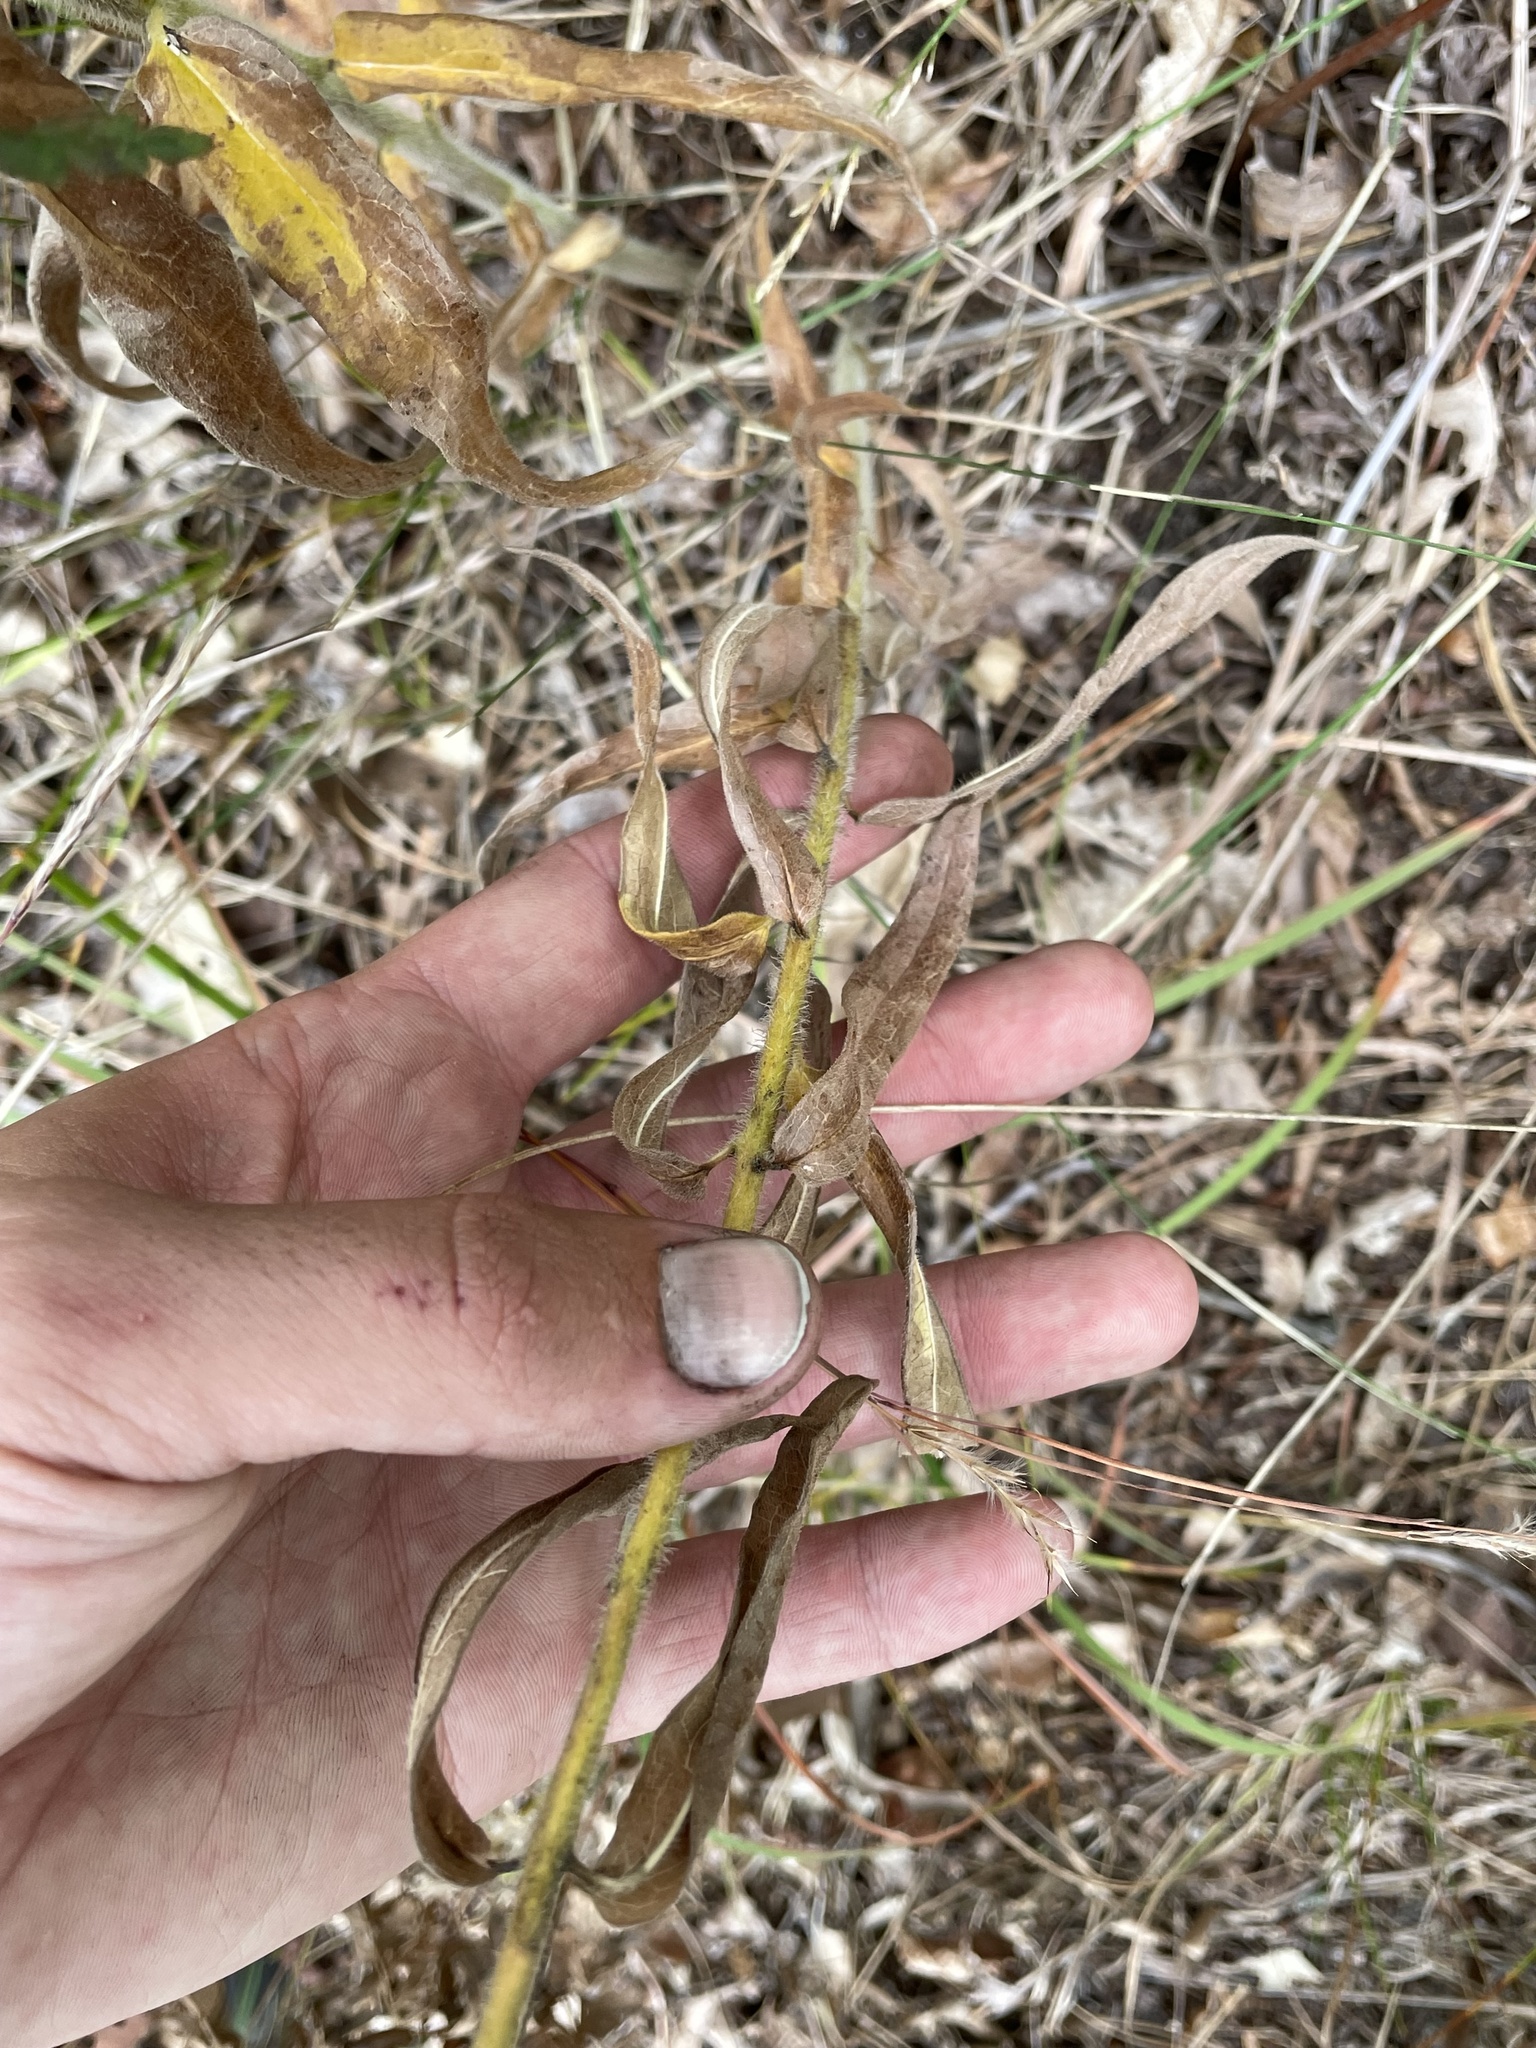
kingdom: Plantae
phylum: Tracheophyta
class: Magnoliopsida
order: Gentianales
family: Apocynaceae
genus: Asclepias
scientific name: Asclepias tuberosa
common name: Butterfly milkweed
